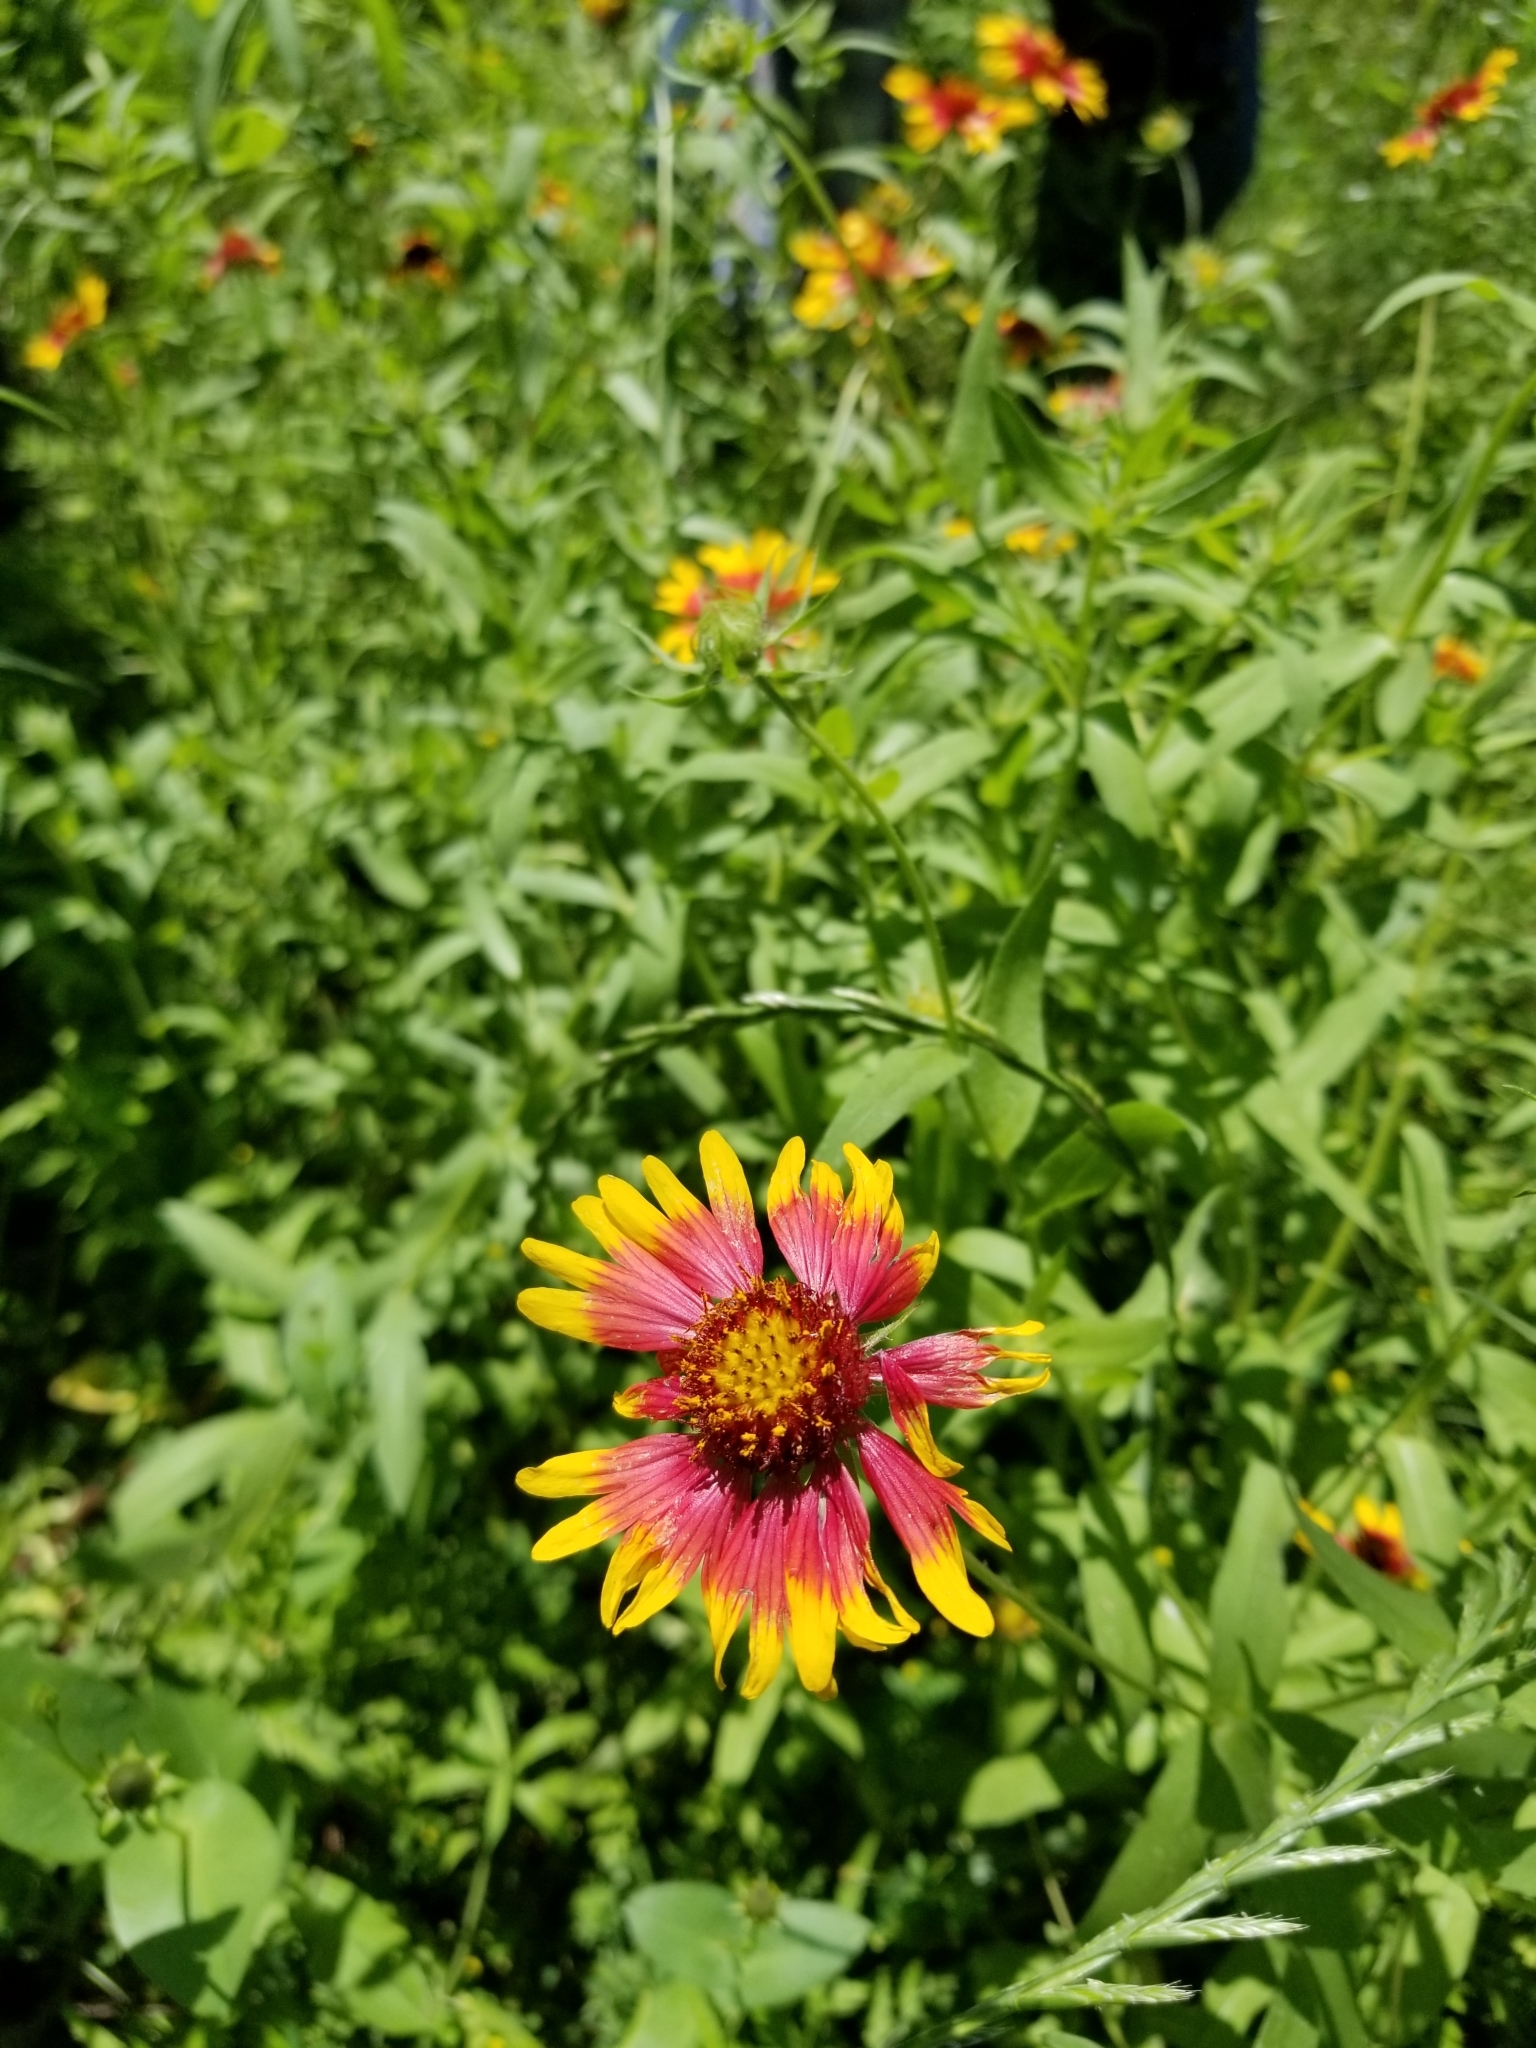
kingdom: Plantae
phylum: Tracheophyta
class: Magnoliopsida
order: Asterales
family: Asteraceae
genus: Gaillardia
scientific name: Gaillardia pulchella
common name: Firewheel
